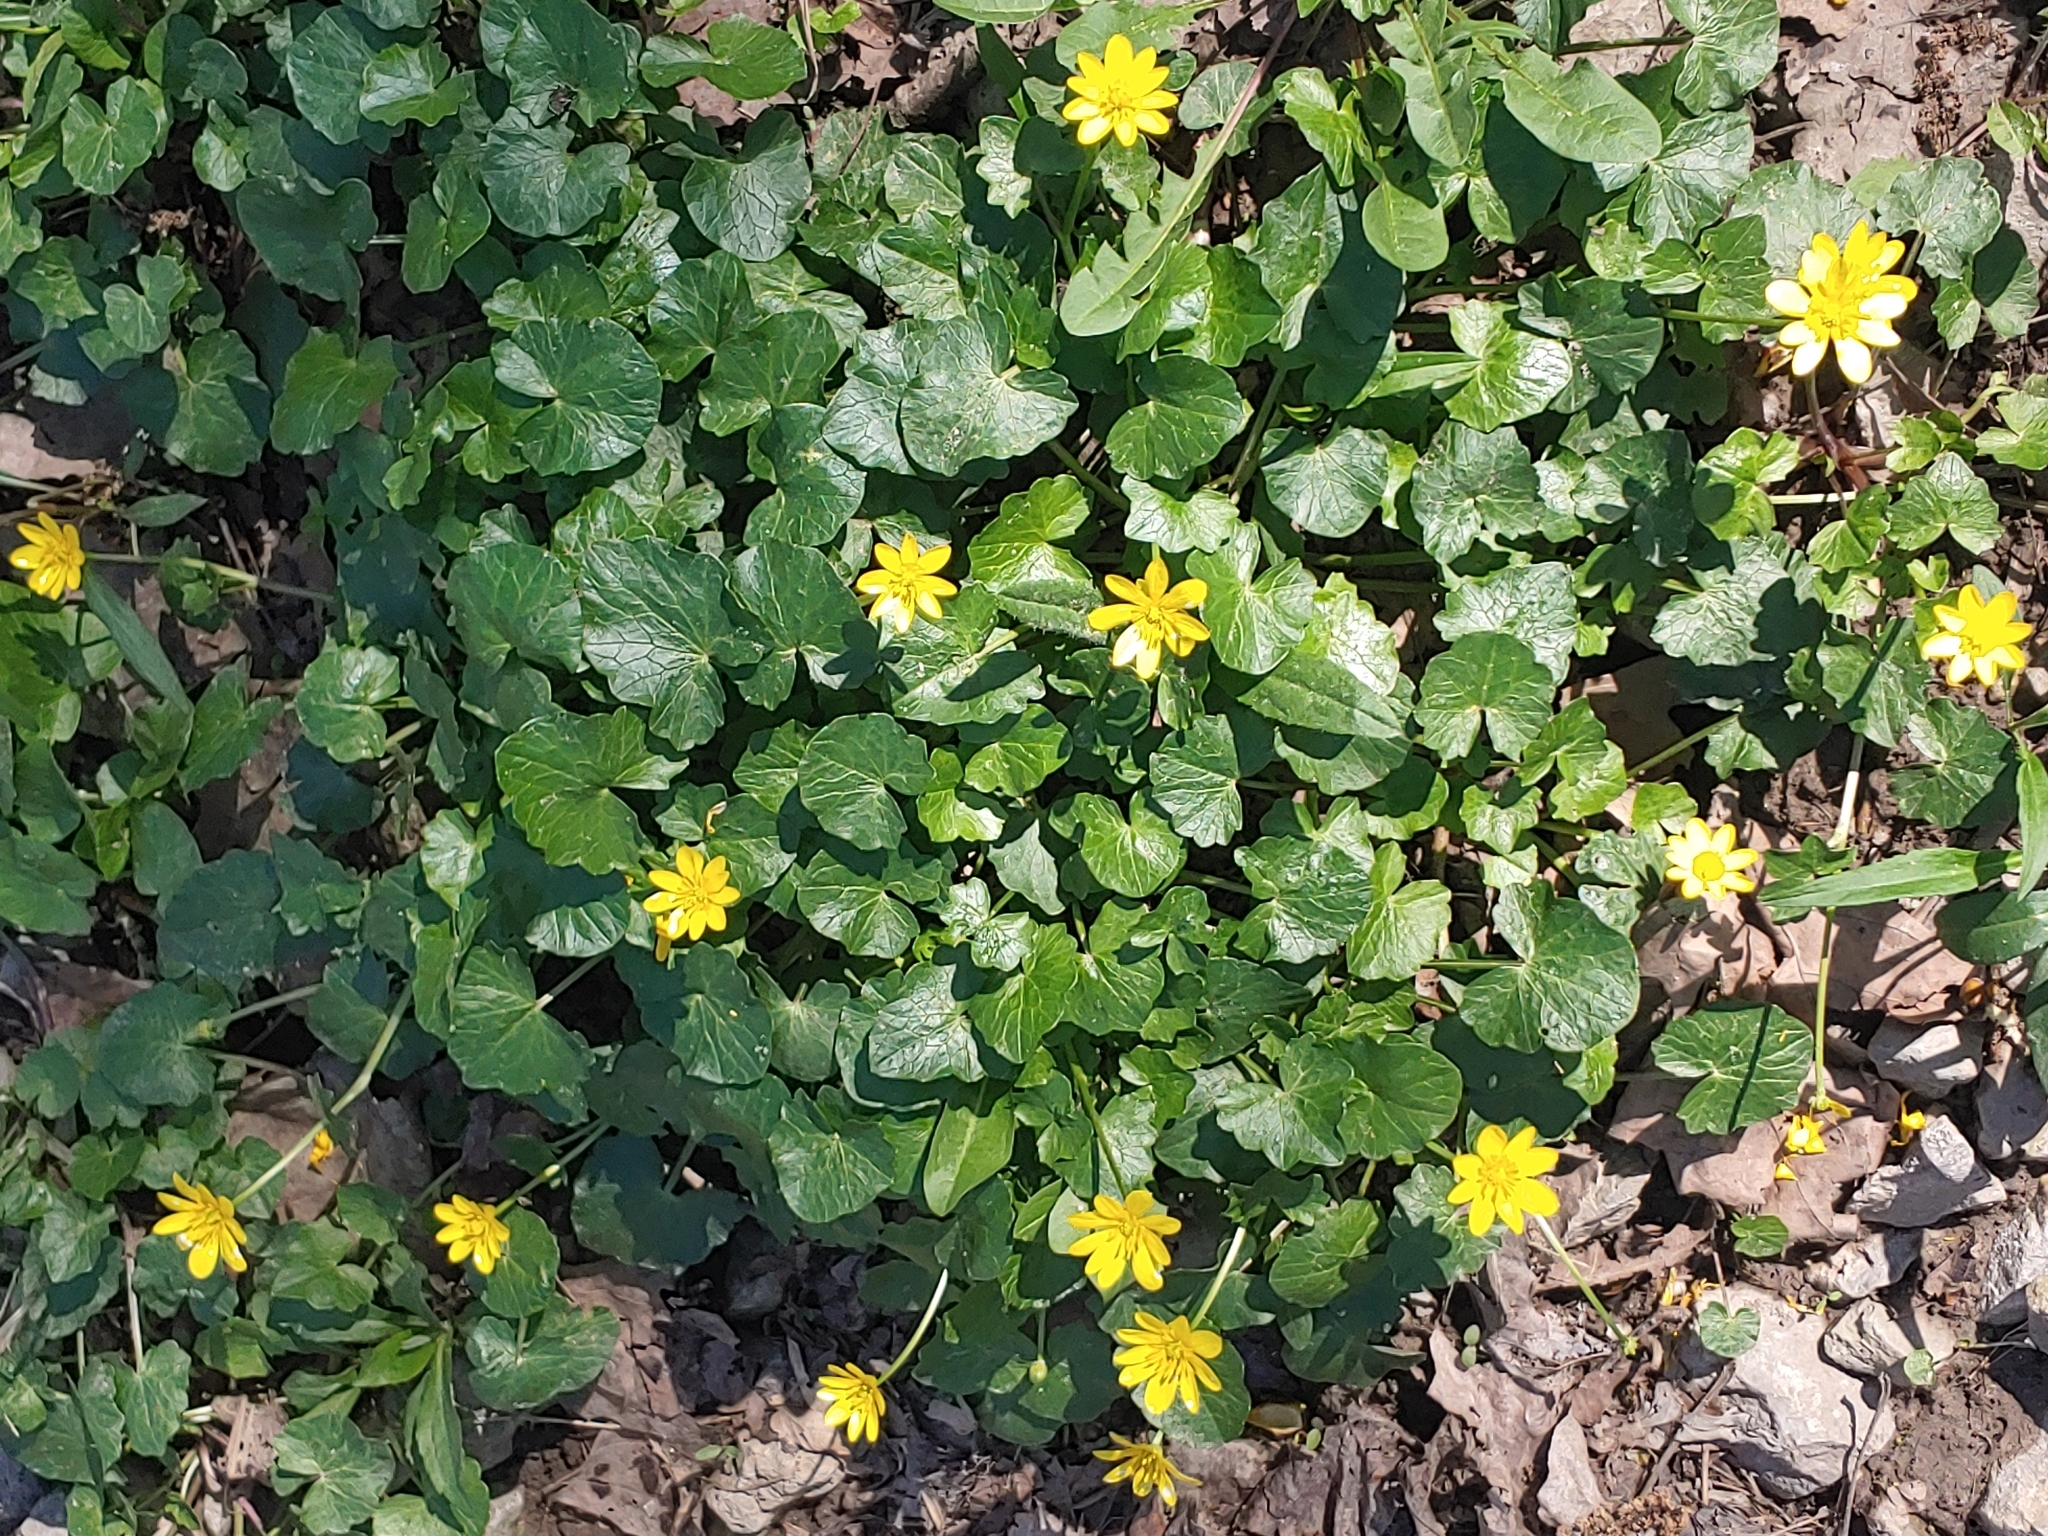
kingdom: Plantae
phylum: Tracheophyta
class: Magnoliopsida
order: Ranunculales
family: Ranunculaceae
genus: Ficaria
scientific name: Ficaria verna
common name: Lesser celandine
